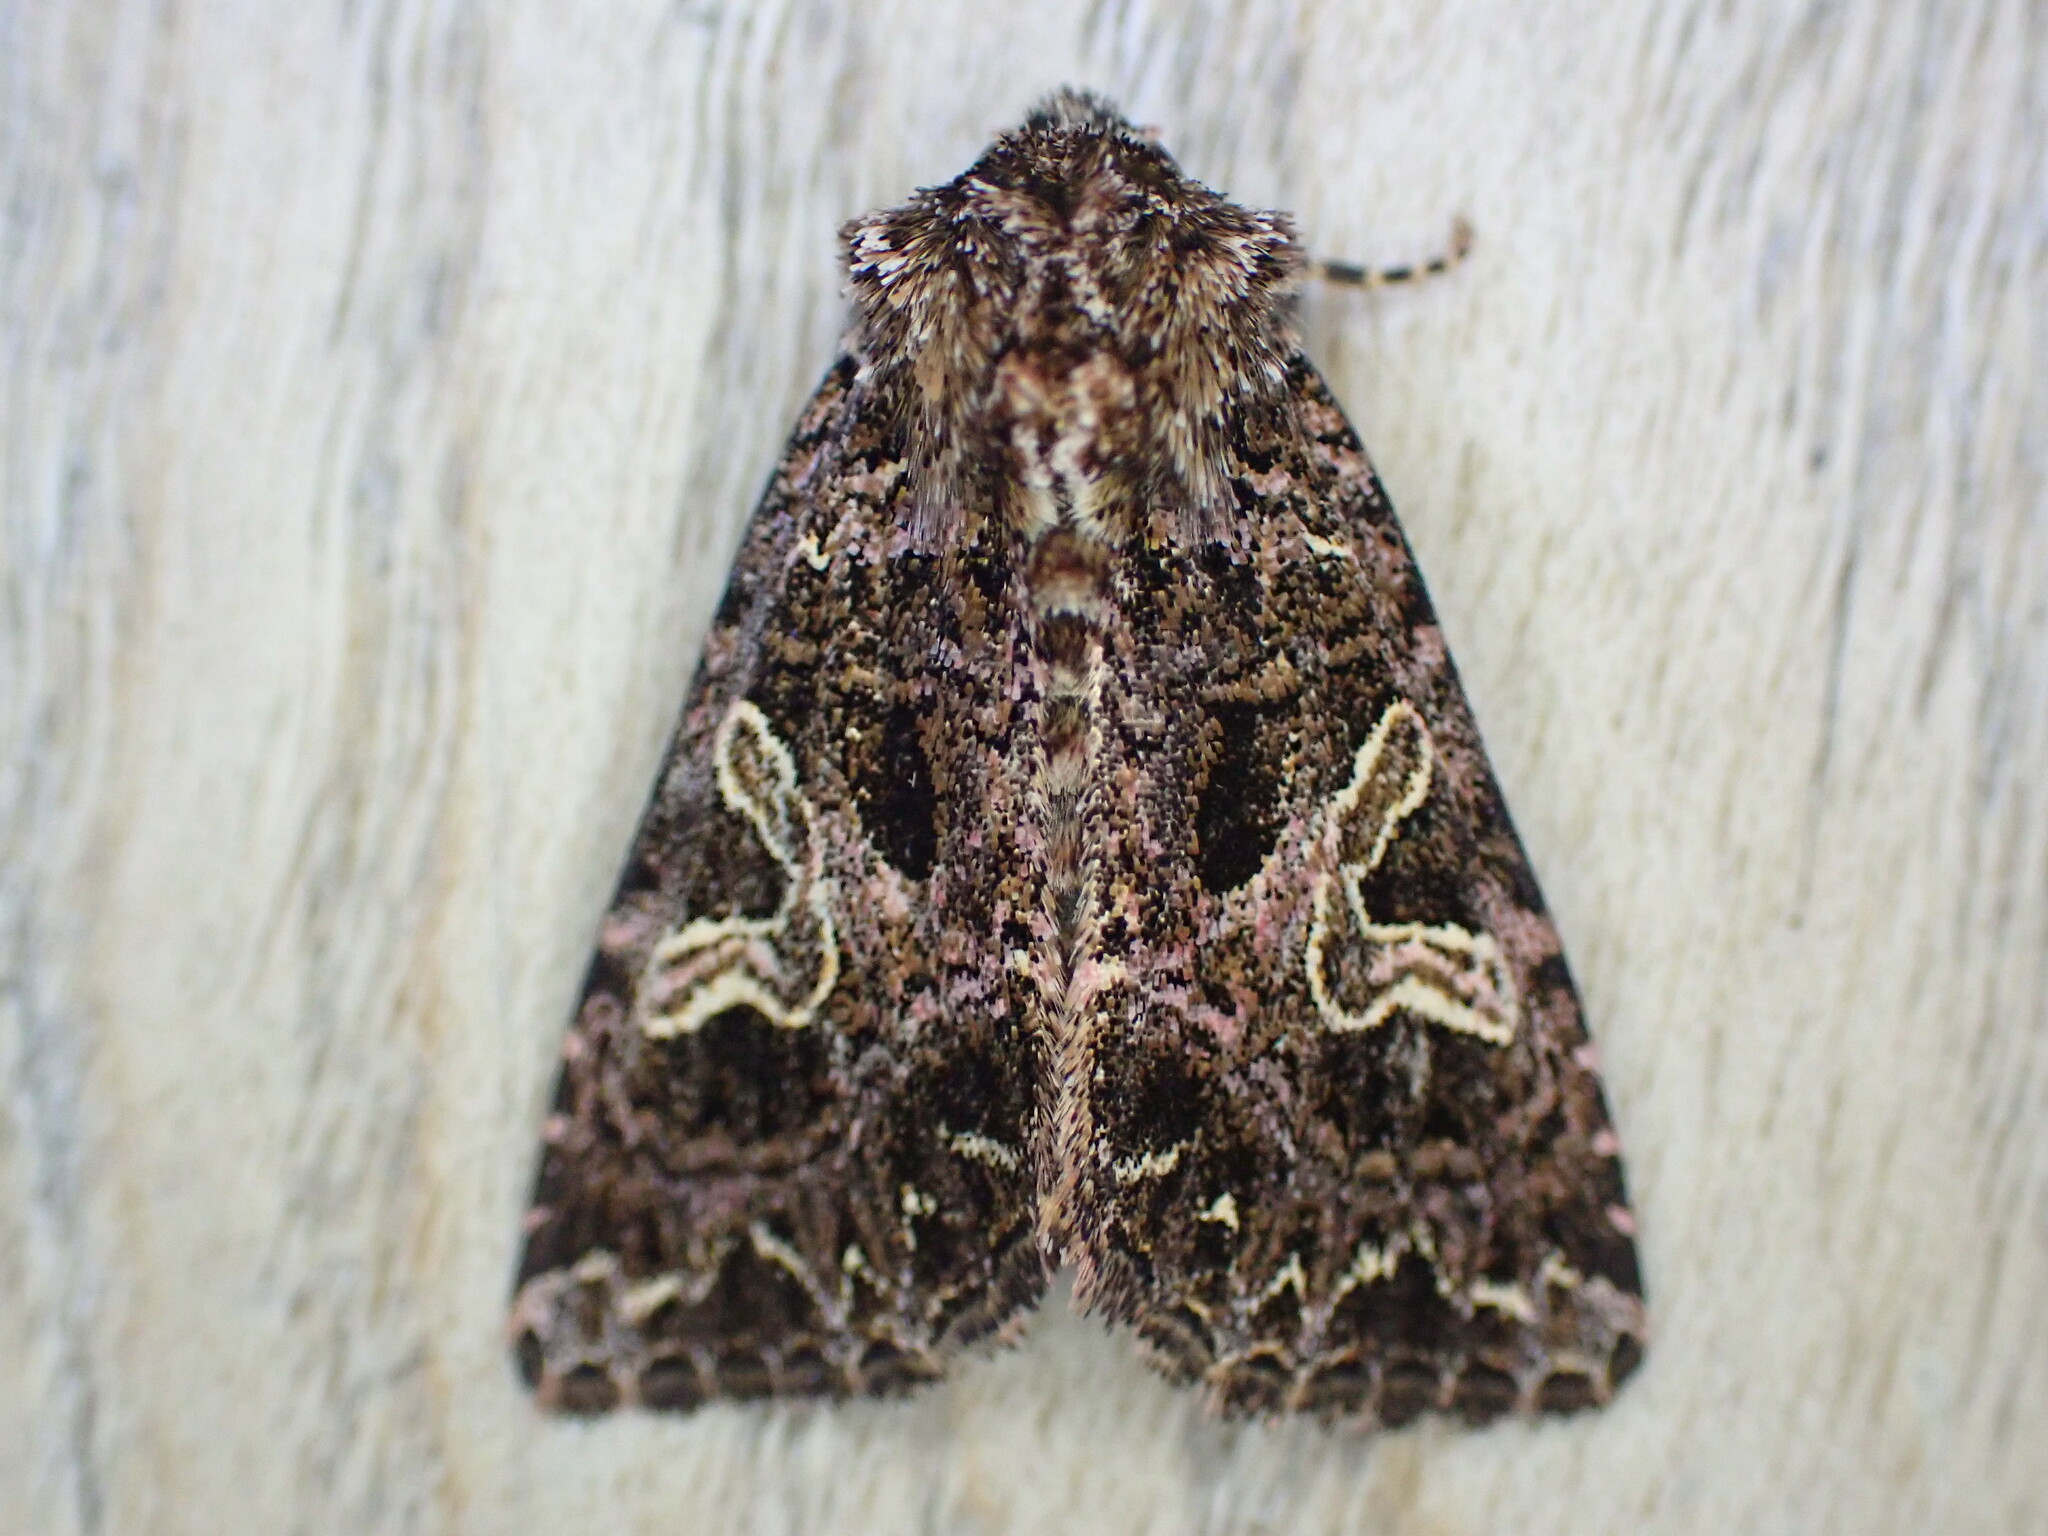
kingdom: Animalia
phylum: Arthropoda
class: Insecta
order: Lepidoptera
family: Noctuidae
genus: Sideridis
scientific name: Sideridis rivularis
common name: Campion
